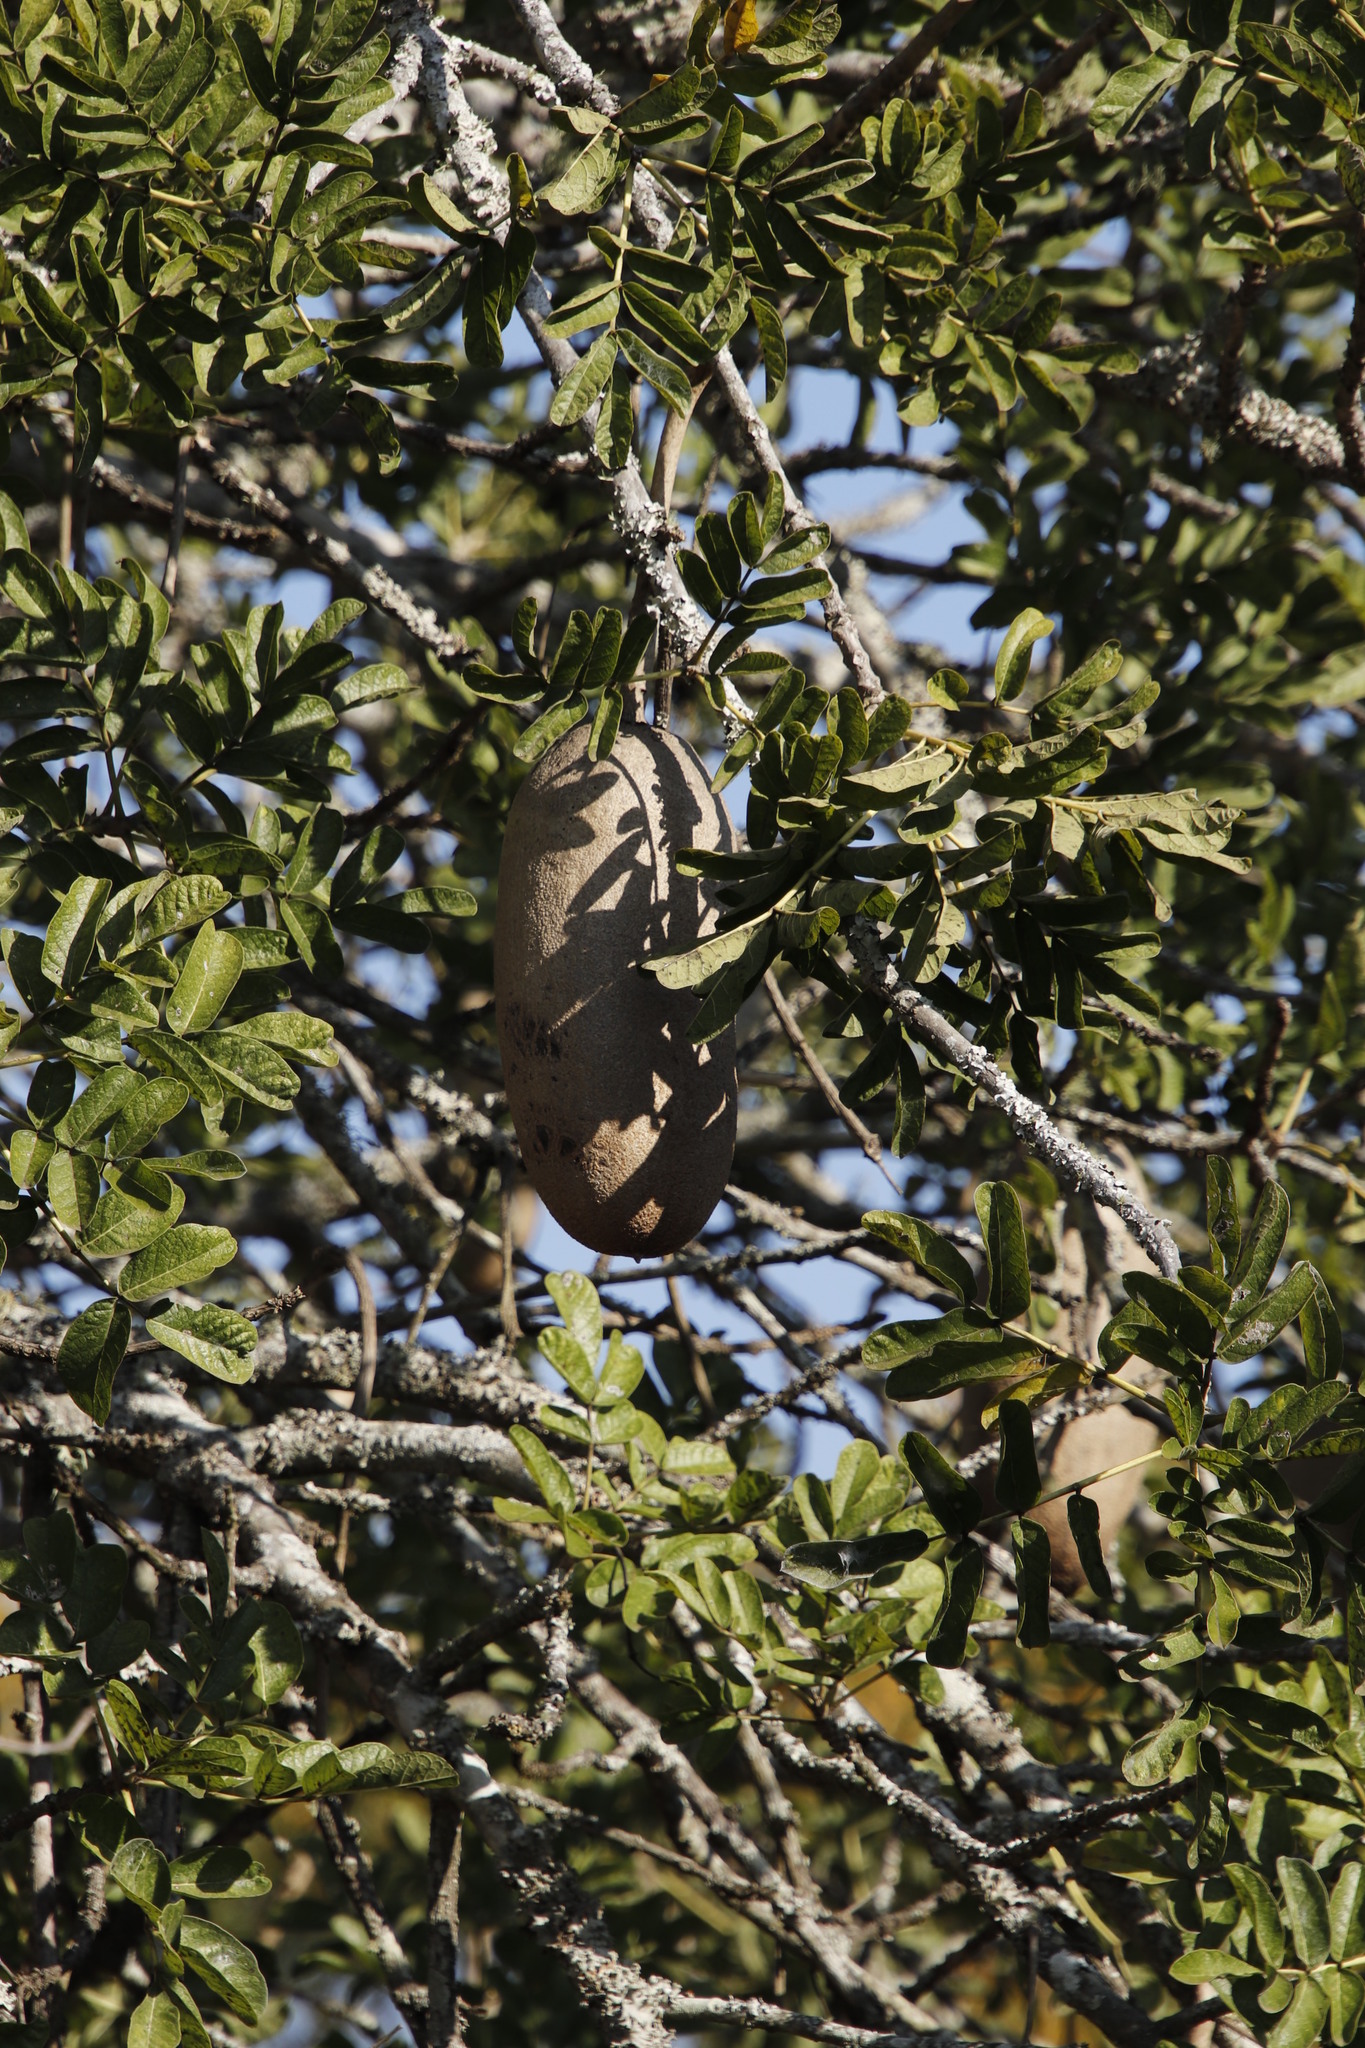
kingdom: Plantae
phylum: Tracheophyta
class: Magnoliopsida
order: Lamiales
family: Bignoniaceae
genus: Kigelia
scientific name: Kigelia africana
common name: Sausage tree
